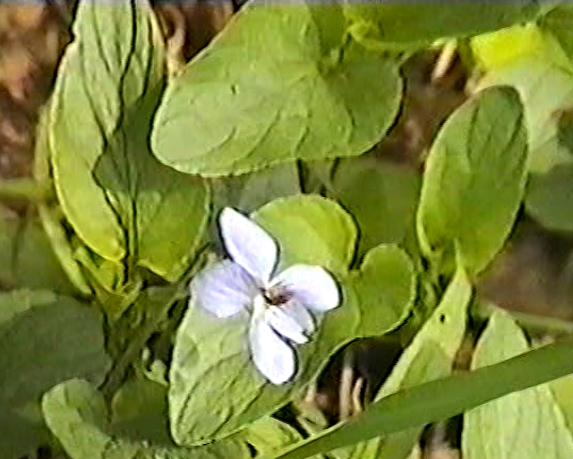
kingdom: Plantae
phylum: Tracheophyta
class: Magnoliopsida
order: Malpighiales
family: Violaceae
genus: Viola
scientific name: Viola canina
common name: Heath dog-violet
